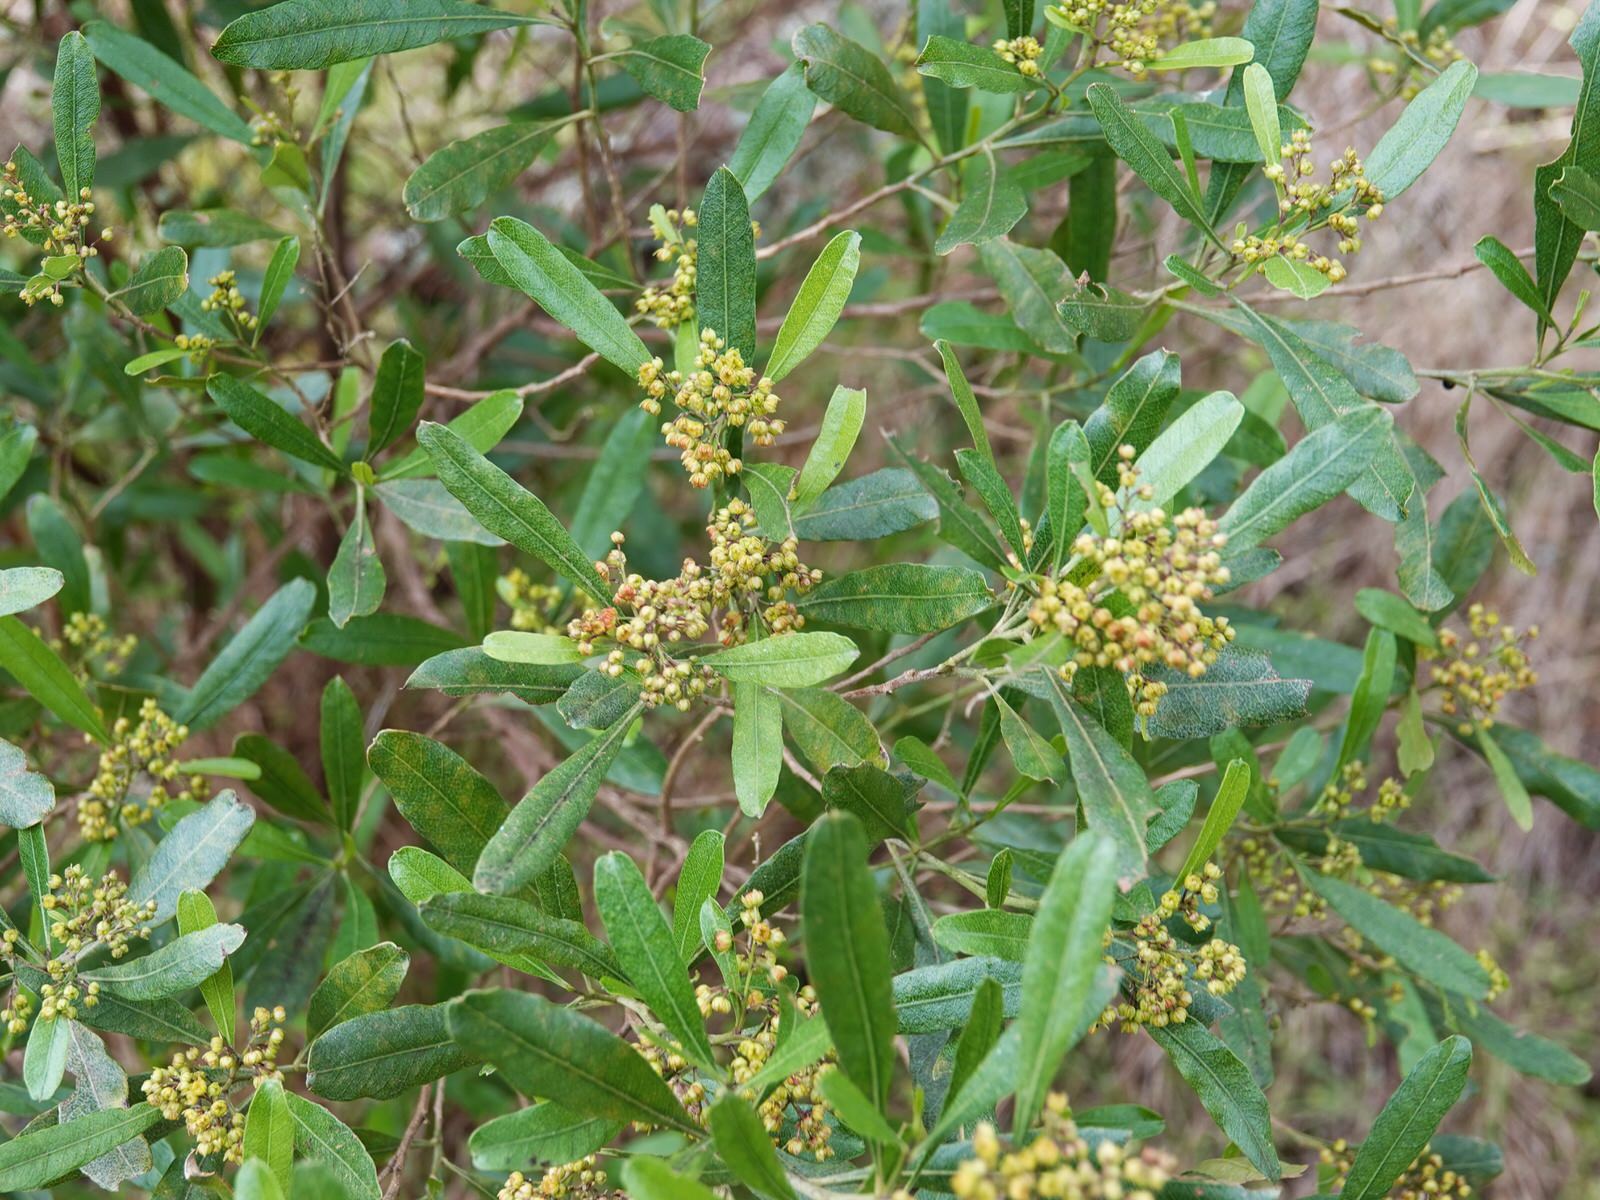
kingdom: Plantae
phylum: Tracheophyta
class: Magnoliopsida
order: Sapindales
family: Sapindaceae
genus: Dodonaea
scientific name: Dodonaea viscosa
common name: Hopbush
